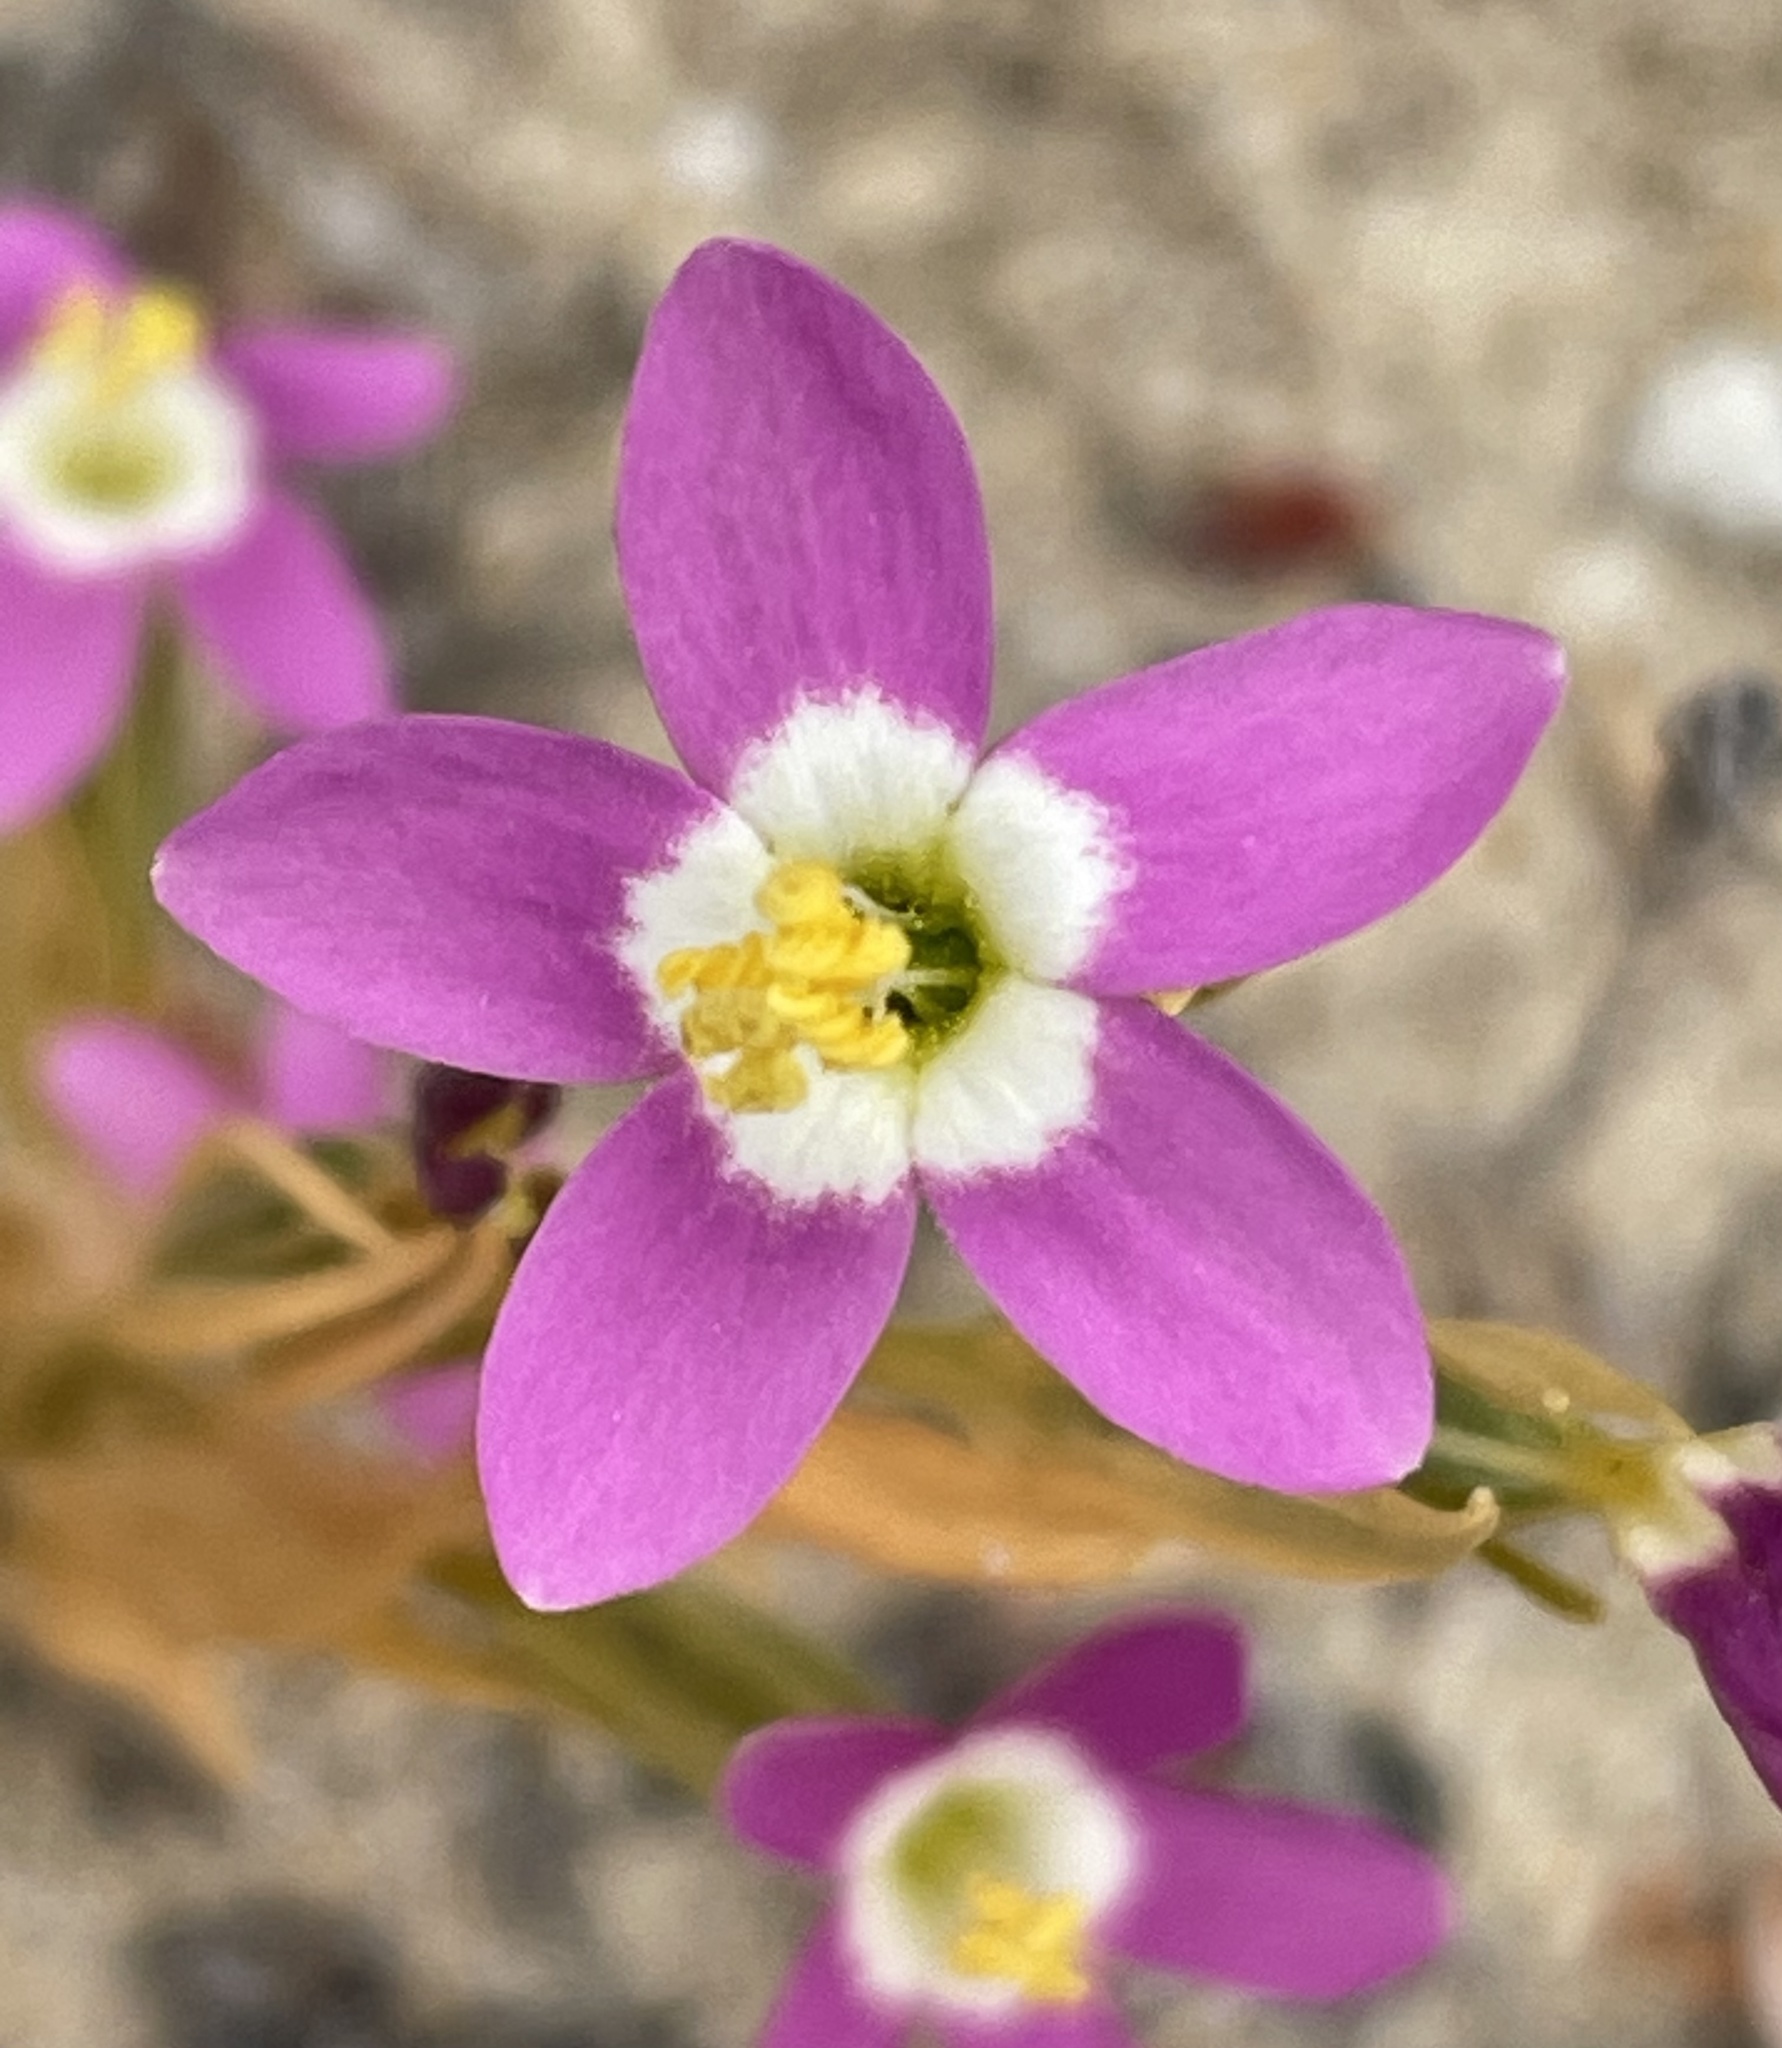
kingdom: Plantae
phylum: Tracheophyta
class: Magnoliopsida
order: Gentianales
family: Gentianaceae
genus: Zeltnera
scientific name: Zeltnera davyi
